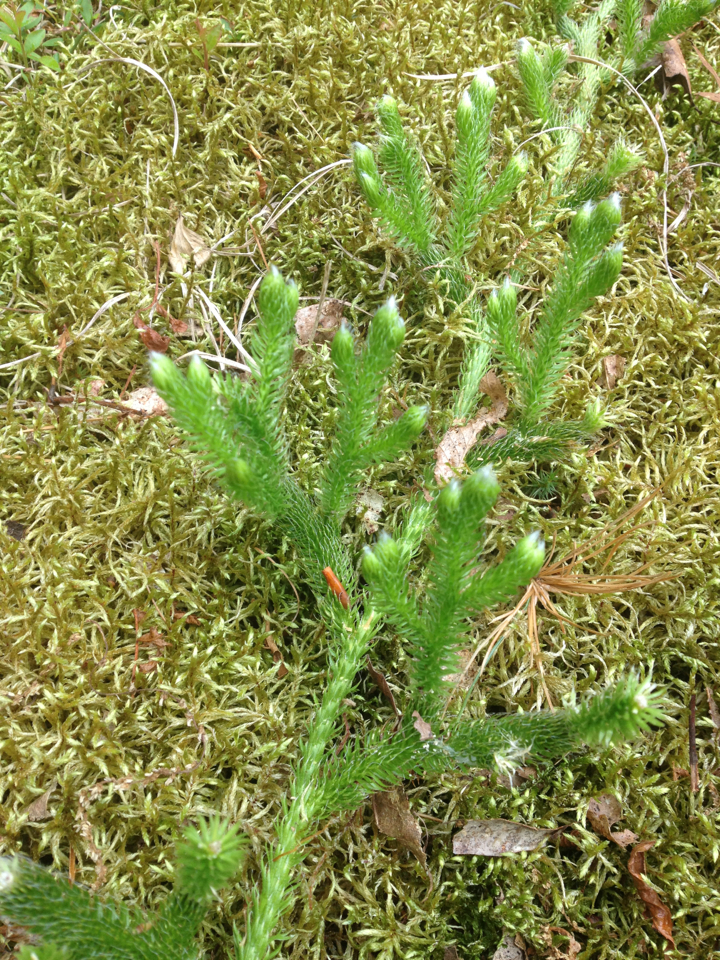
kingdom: Plantae
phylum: Tracheophyta
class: Lycopodiopsida
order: Lycopodiales
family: Lycopodiaceae
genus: Lycopodium
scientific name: Lycopodium clavatum
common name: Stag's-horn clubmoss
